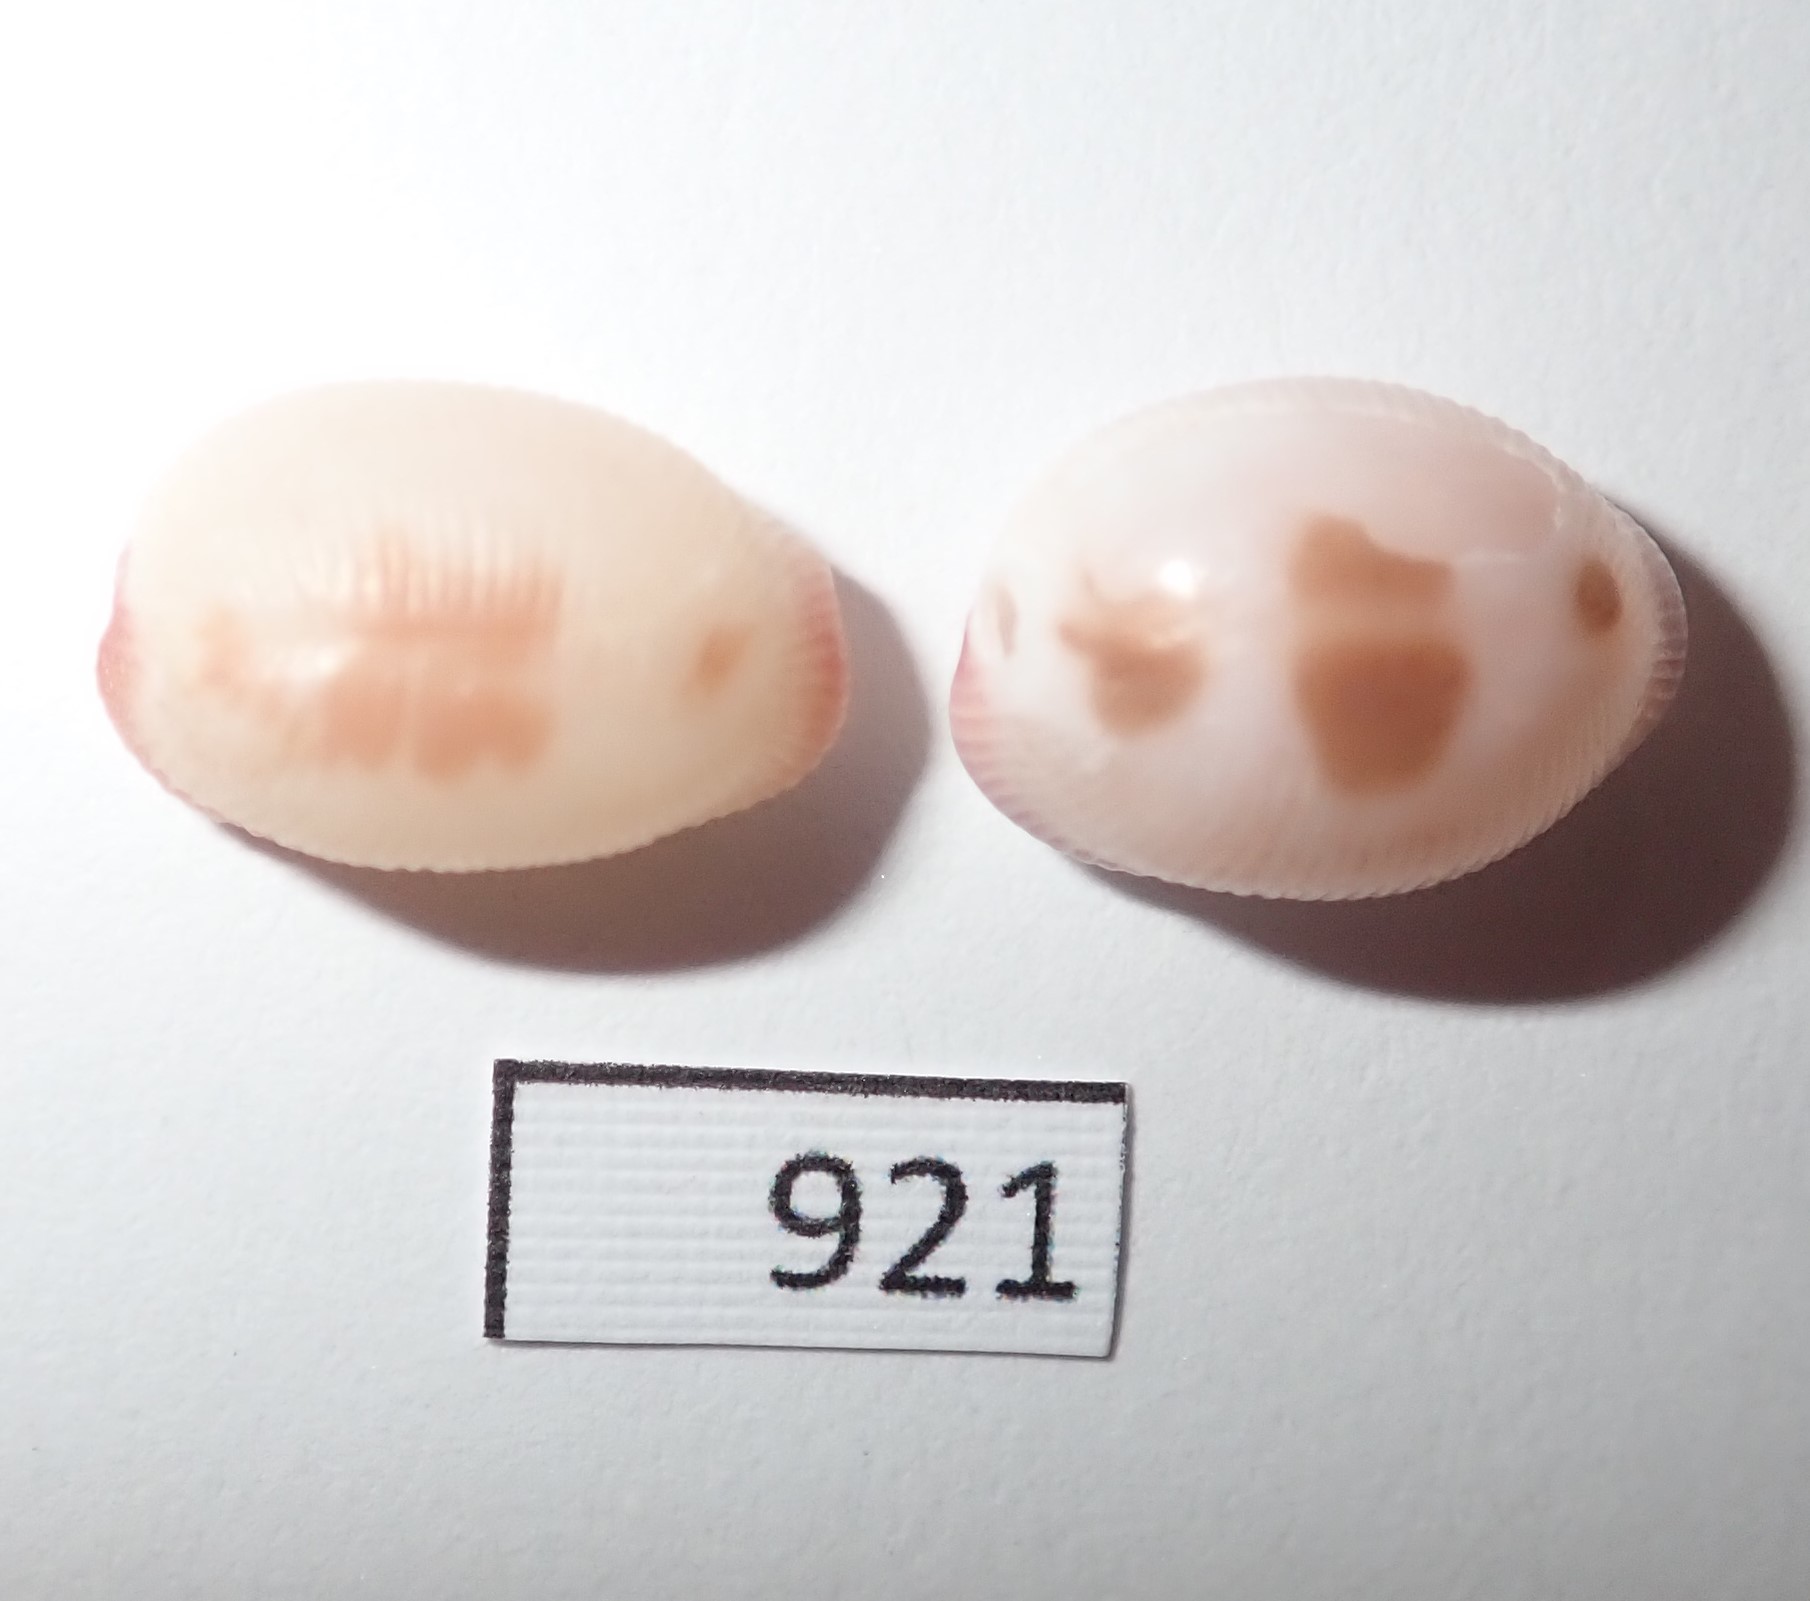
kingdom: Animalia
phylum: Mollusca
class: Gastropoda
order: Littorinimorpha
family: Triviidae
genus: Ellatrivia
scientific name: Ellatrivia merces
